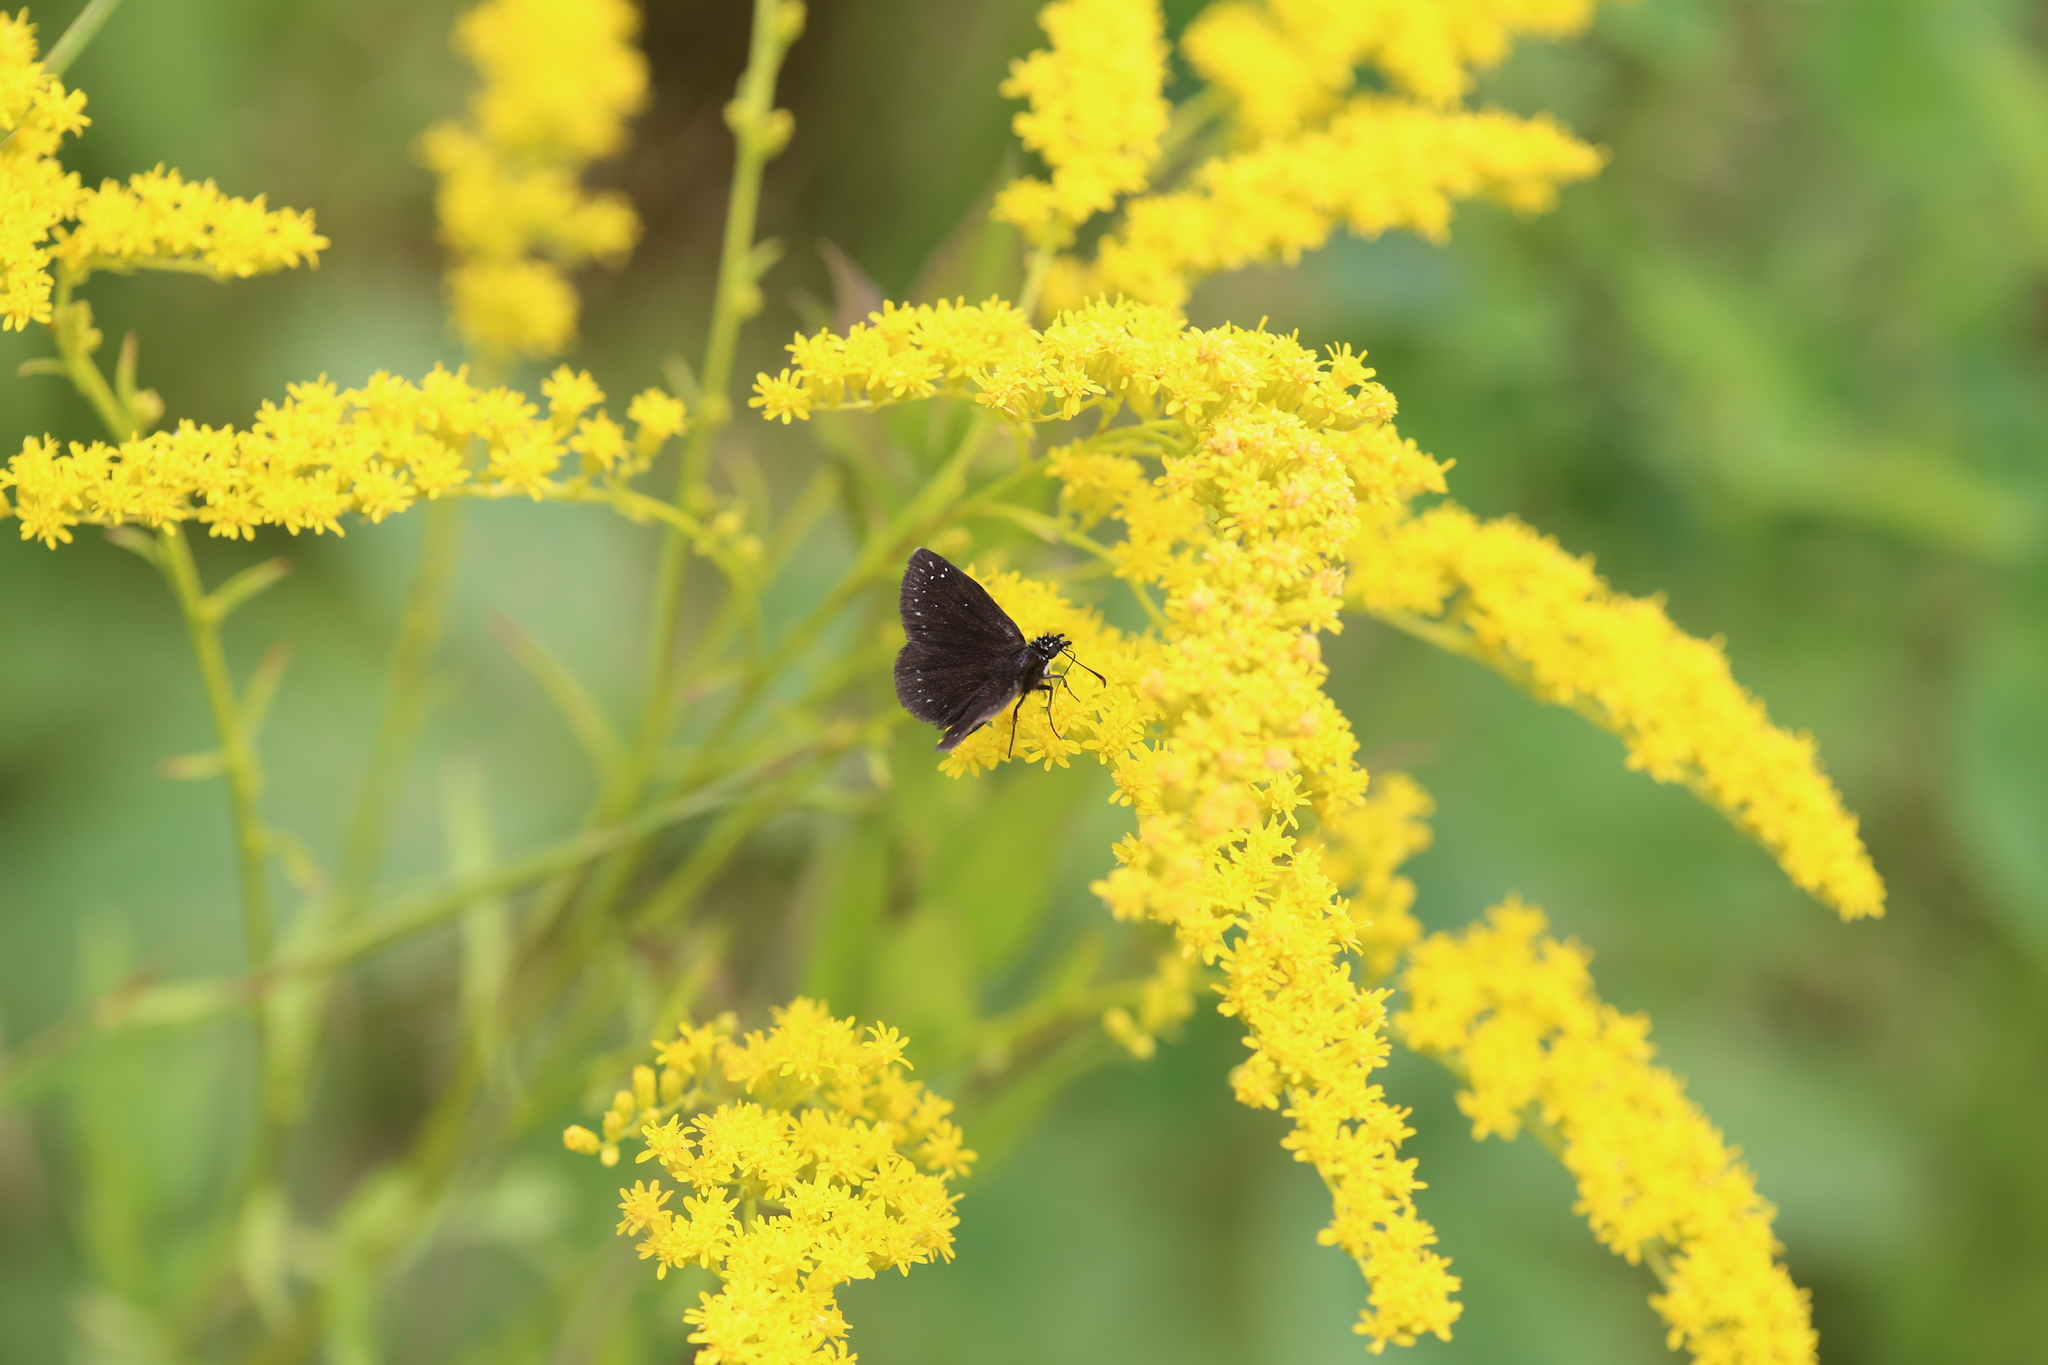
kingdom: Animalia
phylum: Arthropoda
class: Insecta
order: Lepidoptera
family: Hesperiidae
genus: Pholisora
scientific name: Pholisora catullus
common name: Common sootywing
